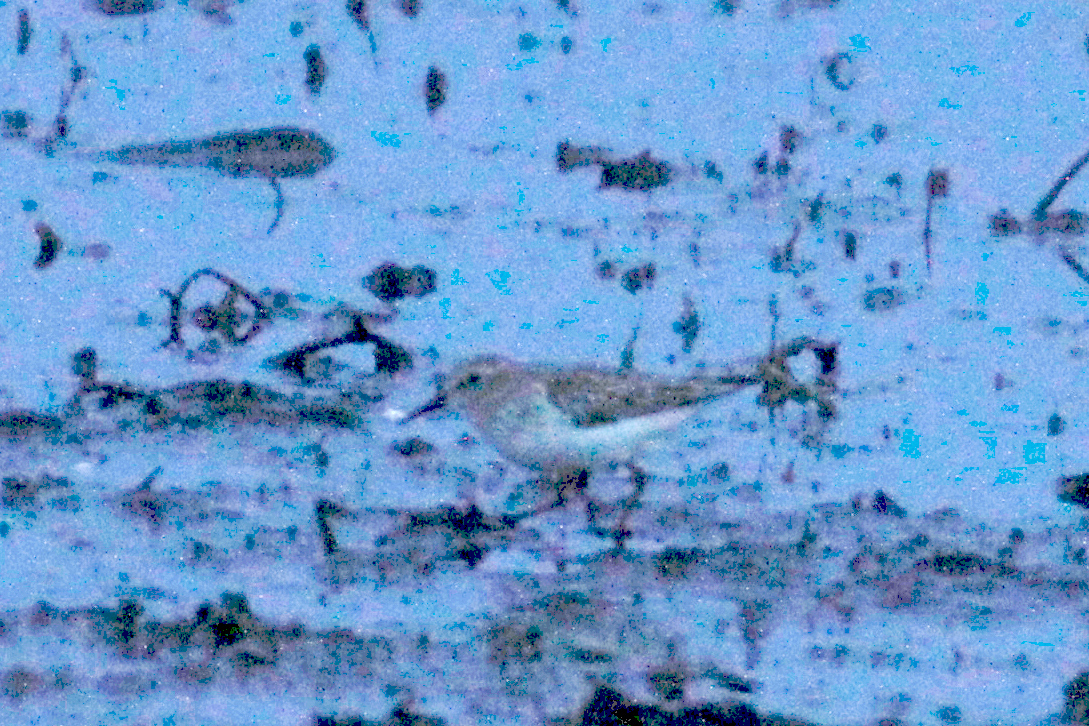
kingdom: Animalia
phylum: Chordata
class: Aves
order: Charadriiformes
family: Scolopacidae
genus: Calidris
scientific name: Calidris minutilla
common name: Least sandpiper
